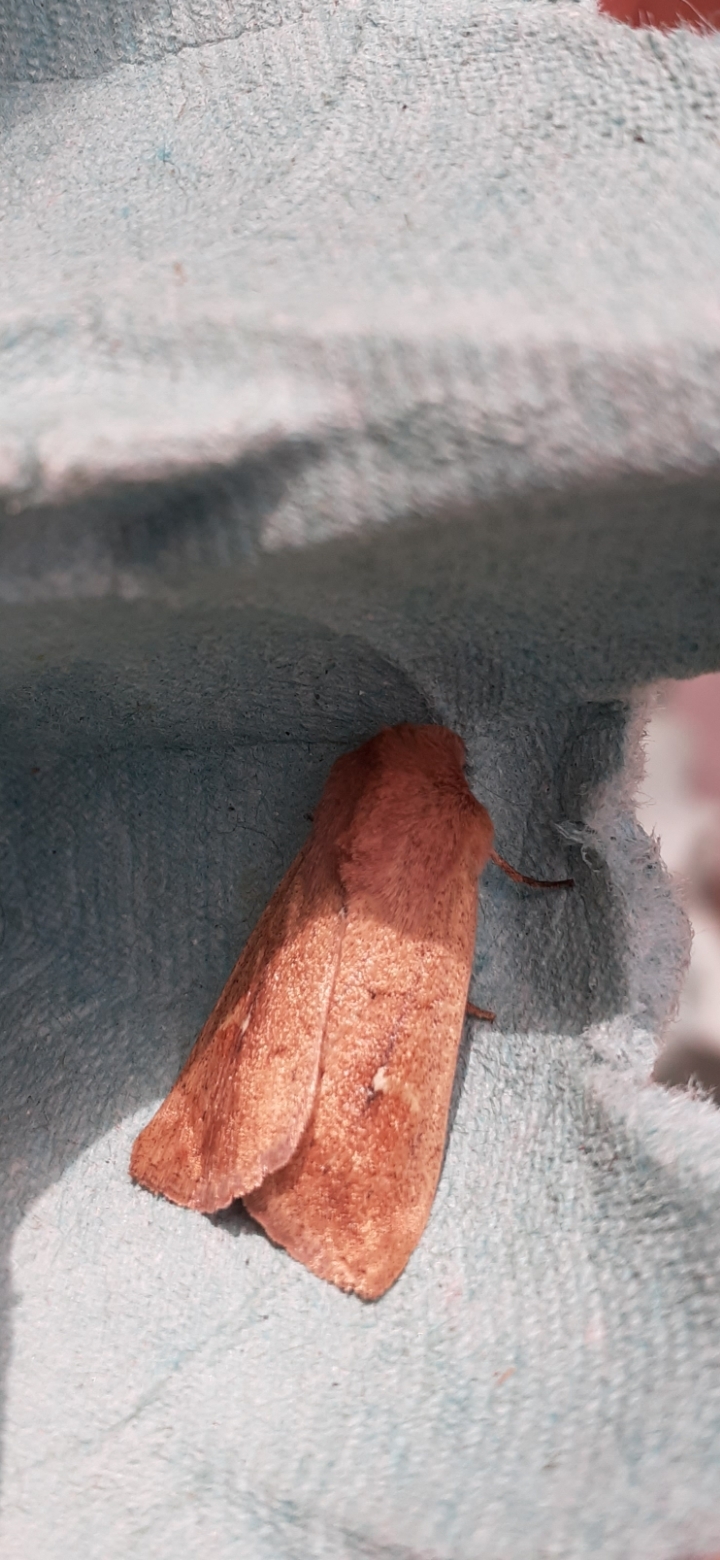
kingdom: Animalia
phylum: Arthropoda
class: Insecta
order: Lepidoptera
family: Noctuidae
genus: Mythimna
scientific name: Mythimna ferrago
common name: Clay
